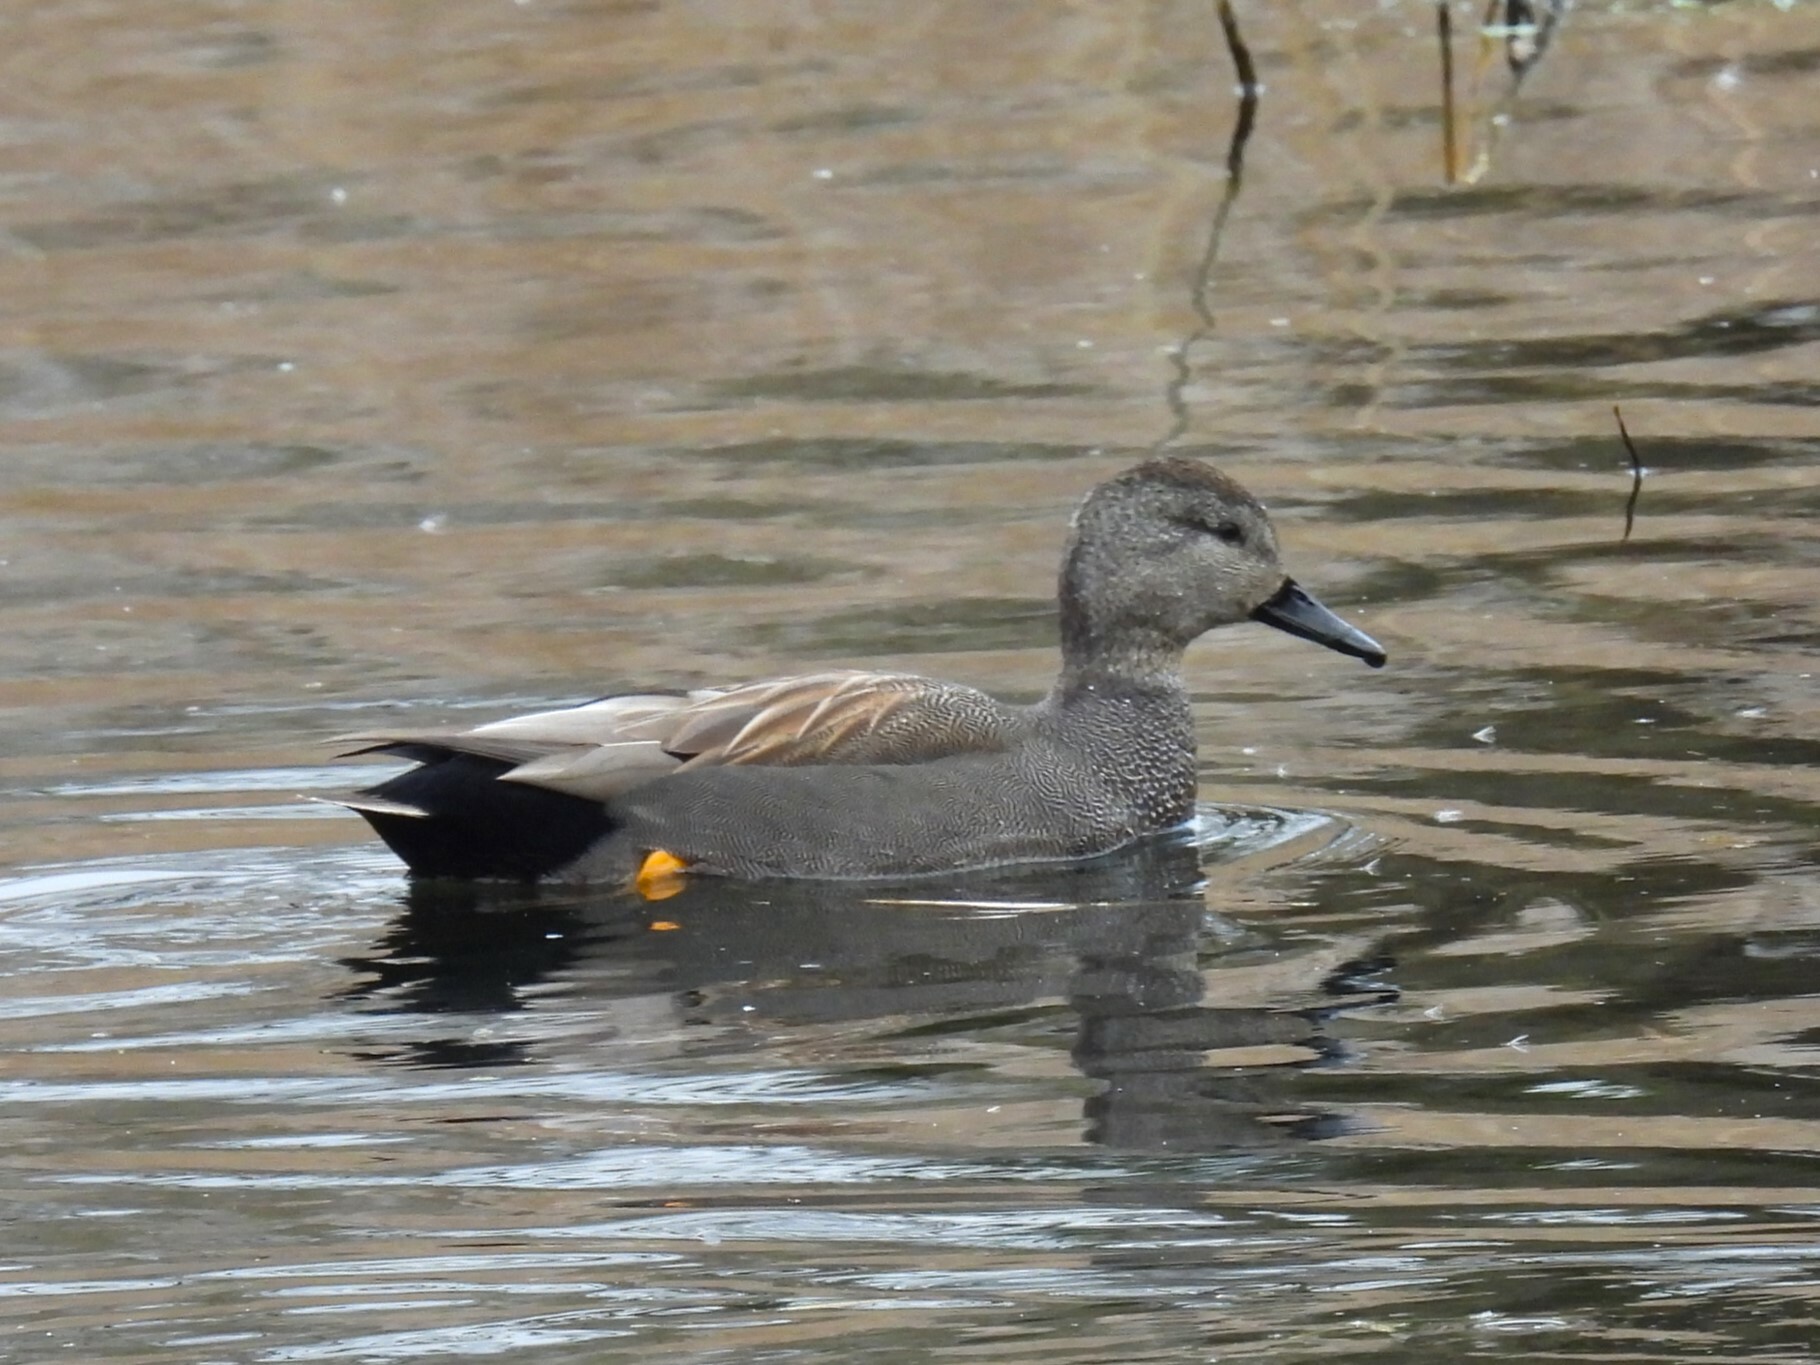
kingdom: Animalia
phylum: Chordata
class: Aves
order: Anseriformes
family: Anatidae
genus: Mareca
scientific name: Mareca strepera
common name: Gadwall
